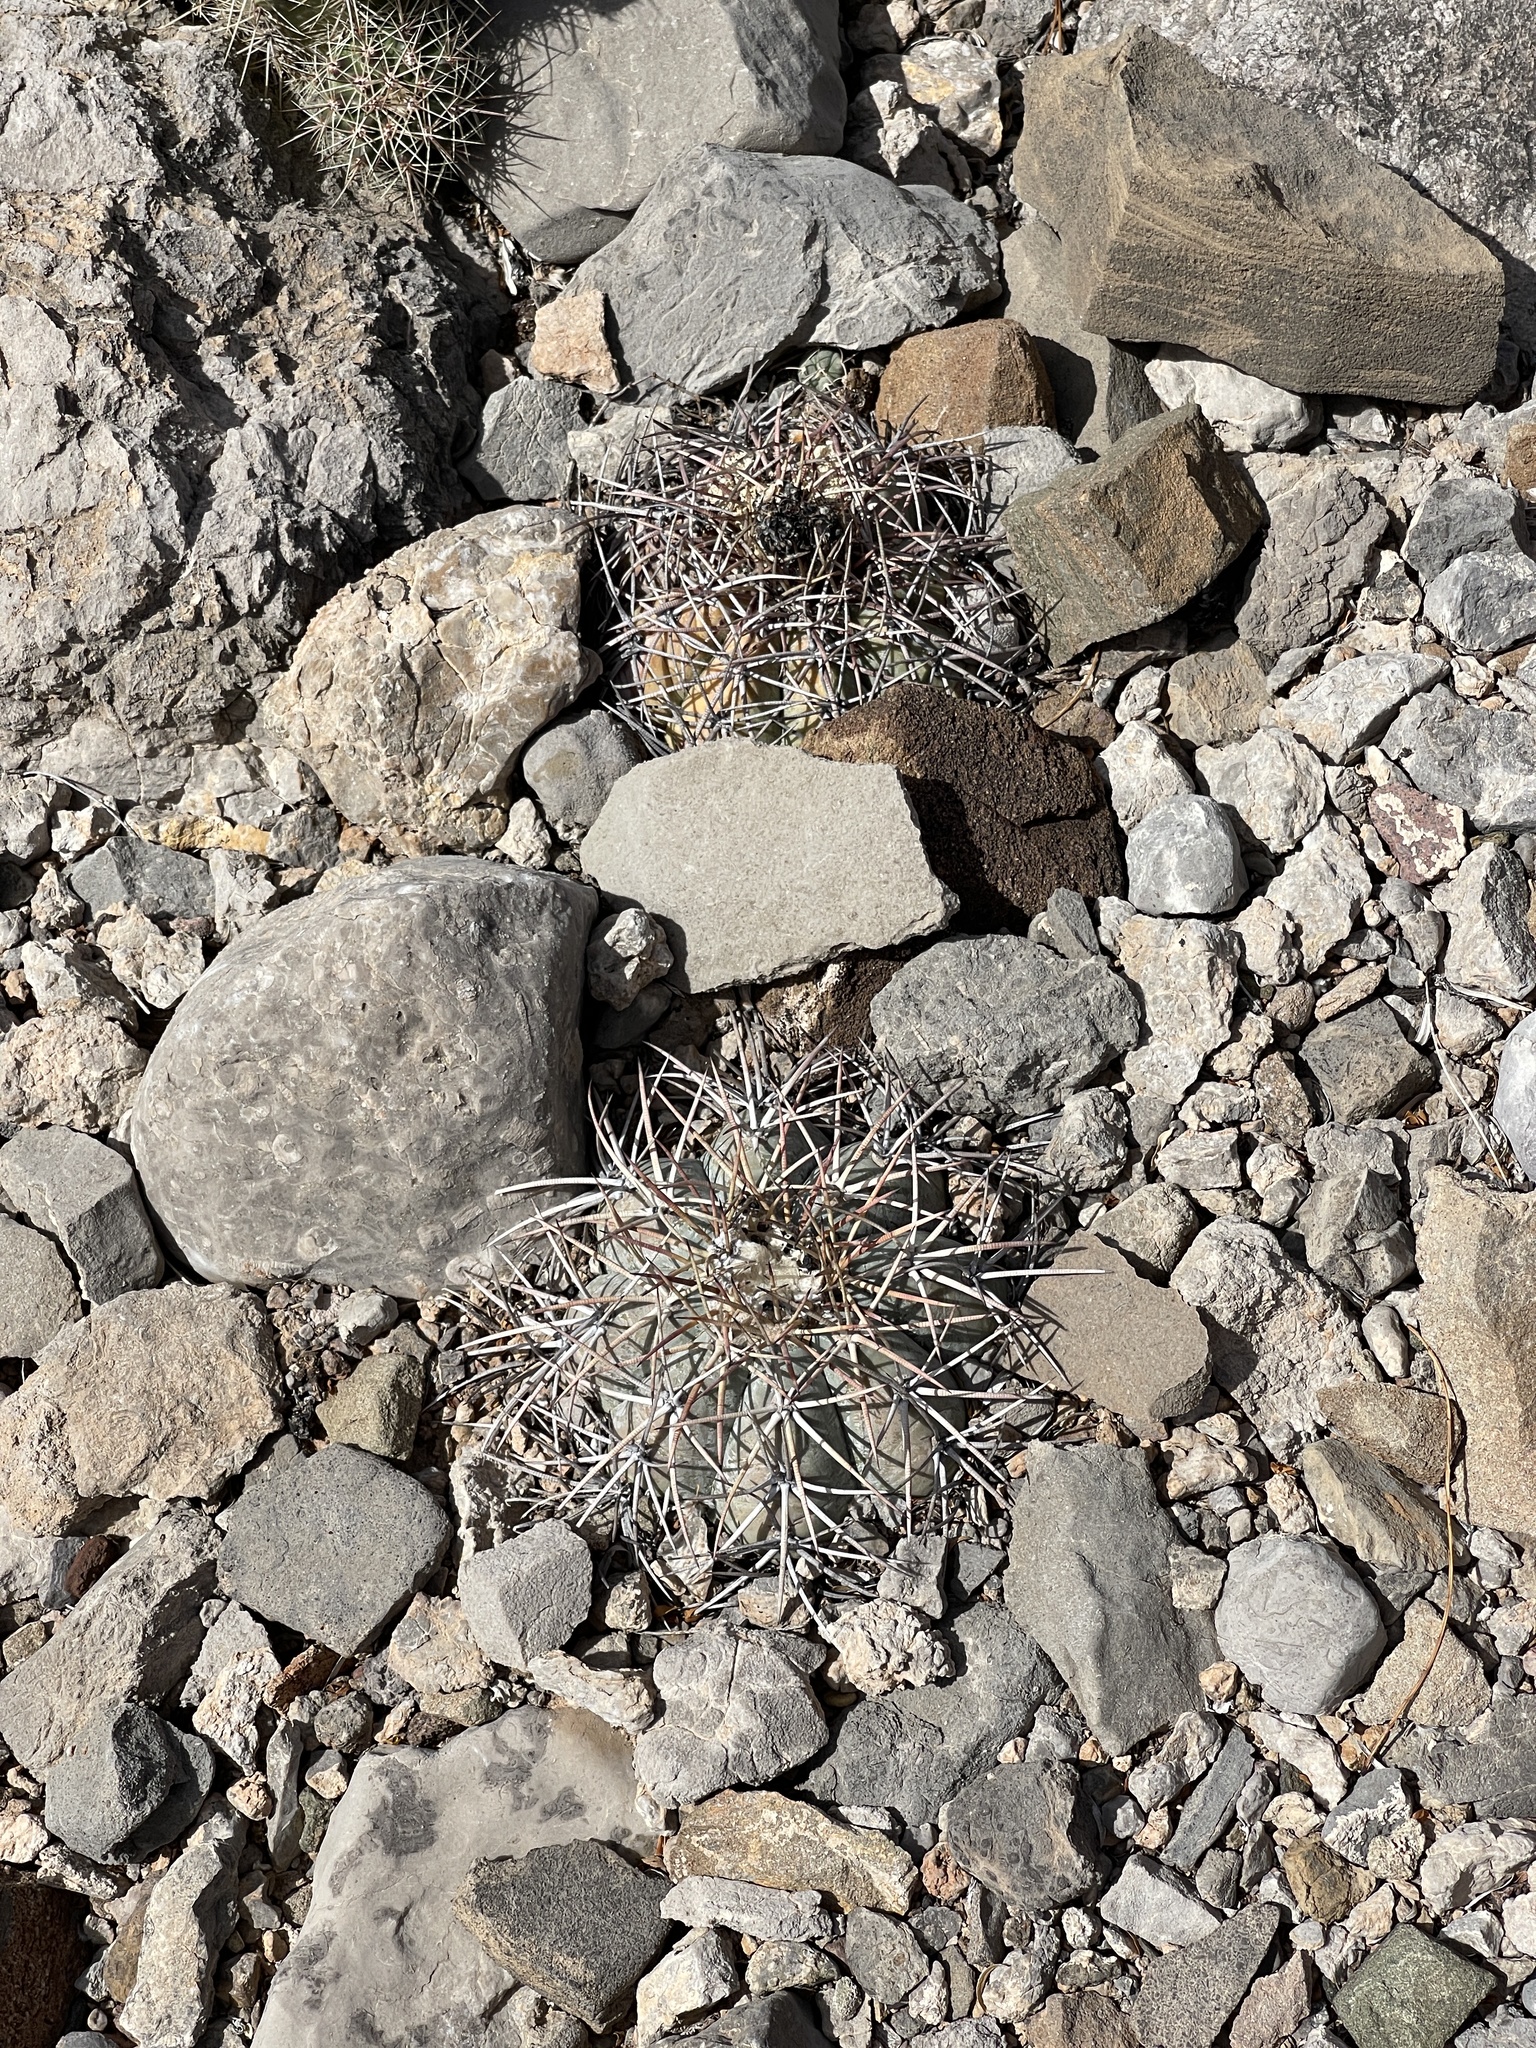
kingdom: Plantae
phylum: Tracheophyta
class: Magnoliopsida
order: Caryophyllales
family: Cactaceae
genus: Echinocactus
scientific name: Echinocactus horizonthalonius
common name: Devilshead
